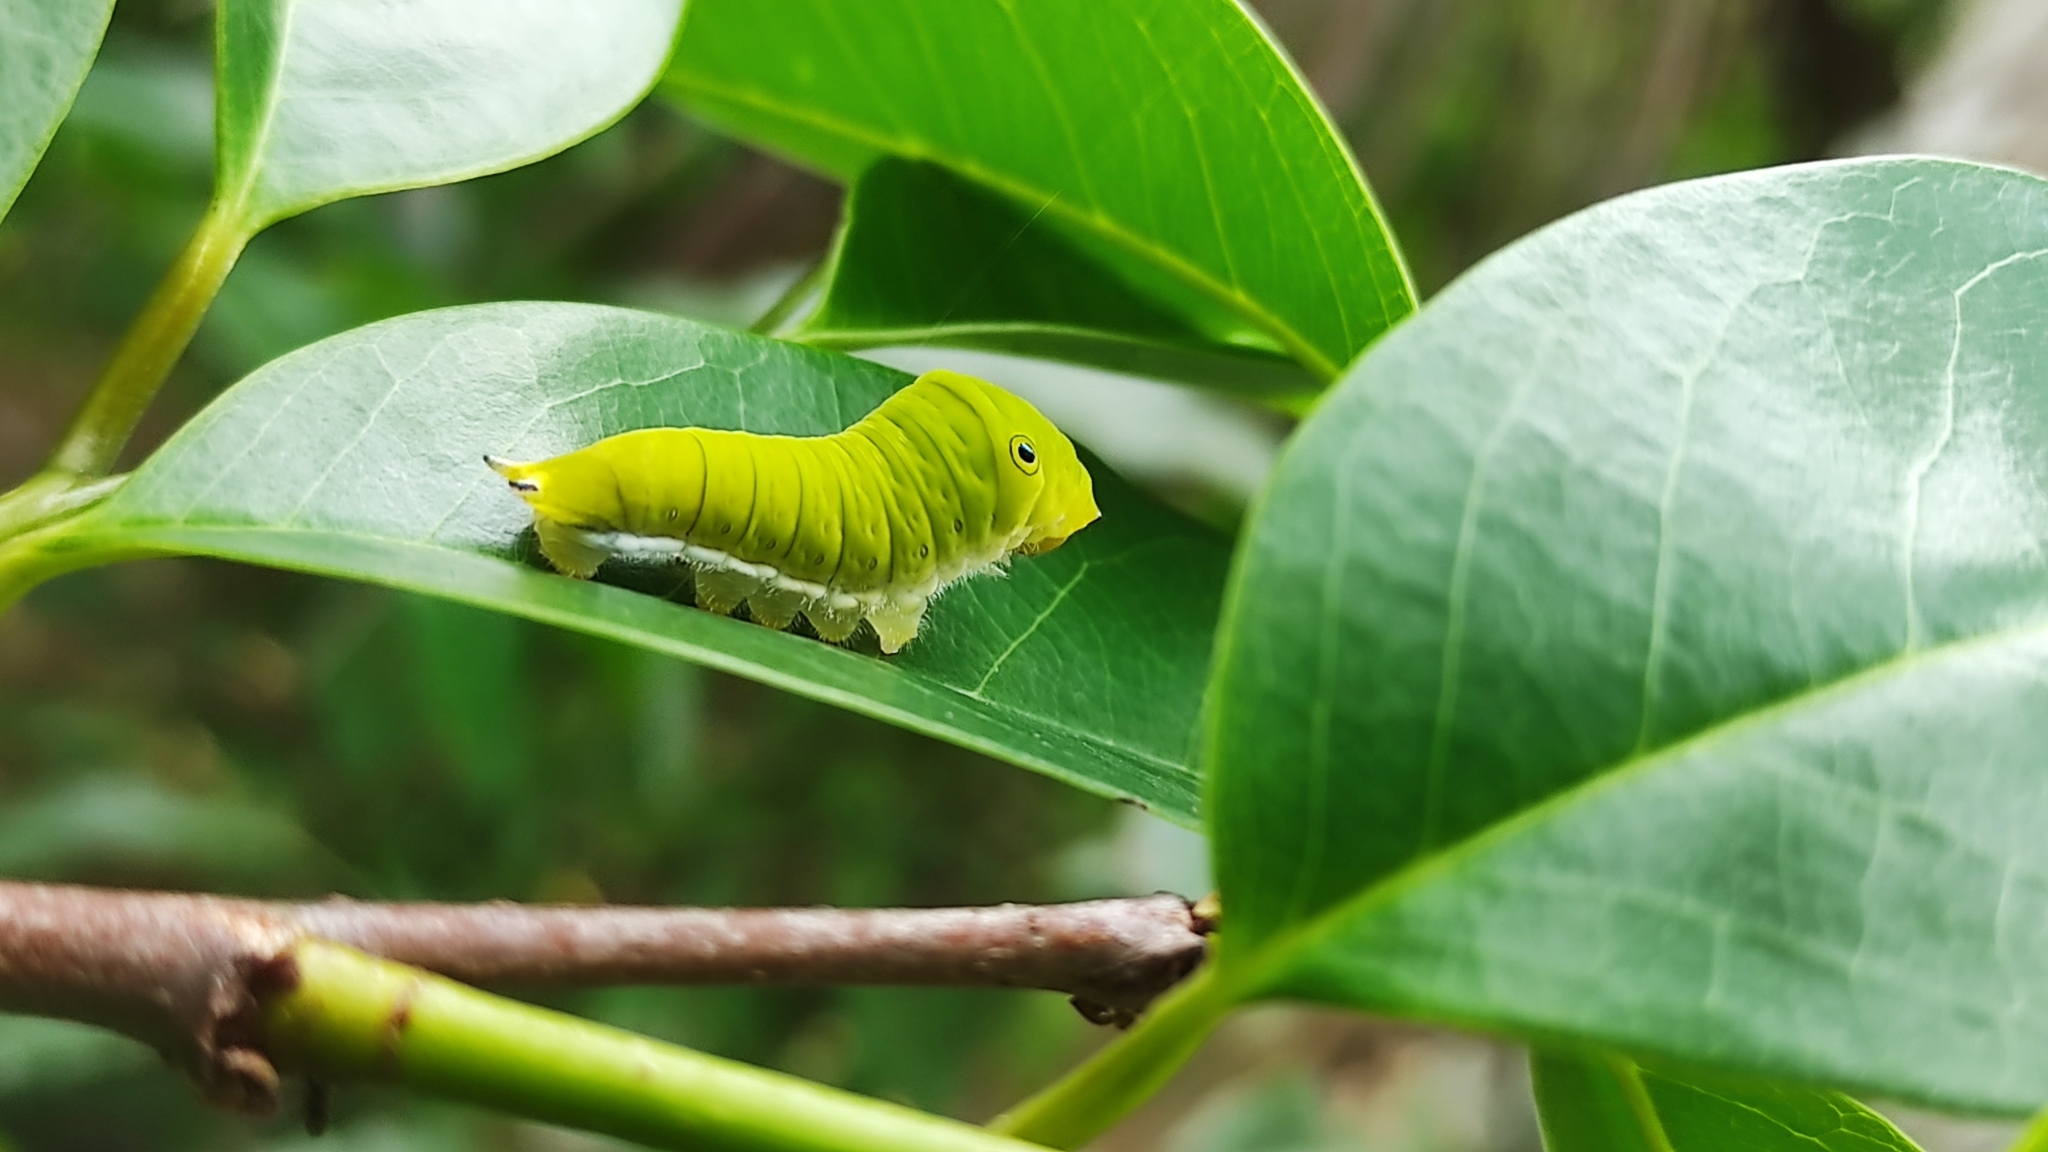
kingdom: Animalia
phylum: Arthropoda
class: Insecta
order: Lepidoptera
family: Papilionidae
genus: Graphium
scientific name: Graphium doson
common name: Common jay
